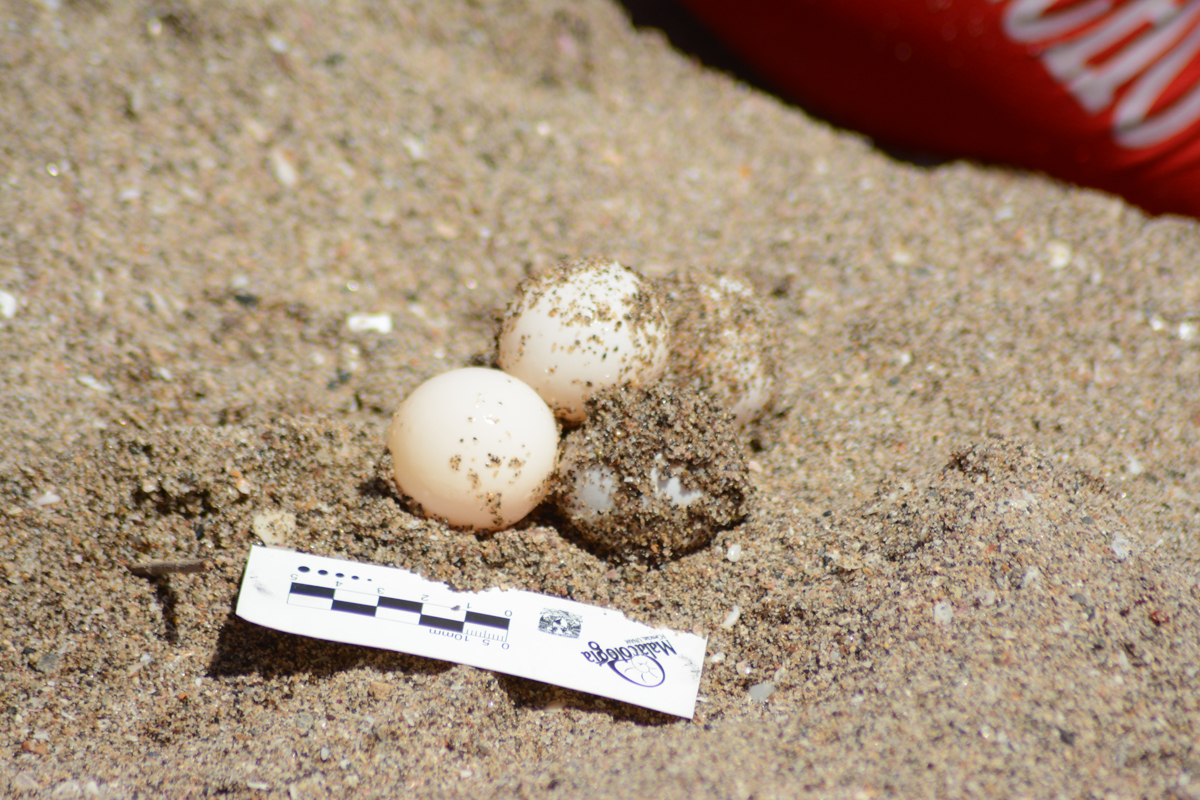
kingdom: Animalia
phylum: Chordata
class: Testudines
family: Cheloniidae
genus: Lepidochelys
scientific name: Lepidochelys olivacea
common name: Olive ridley
